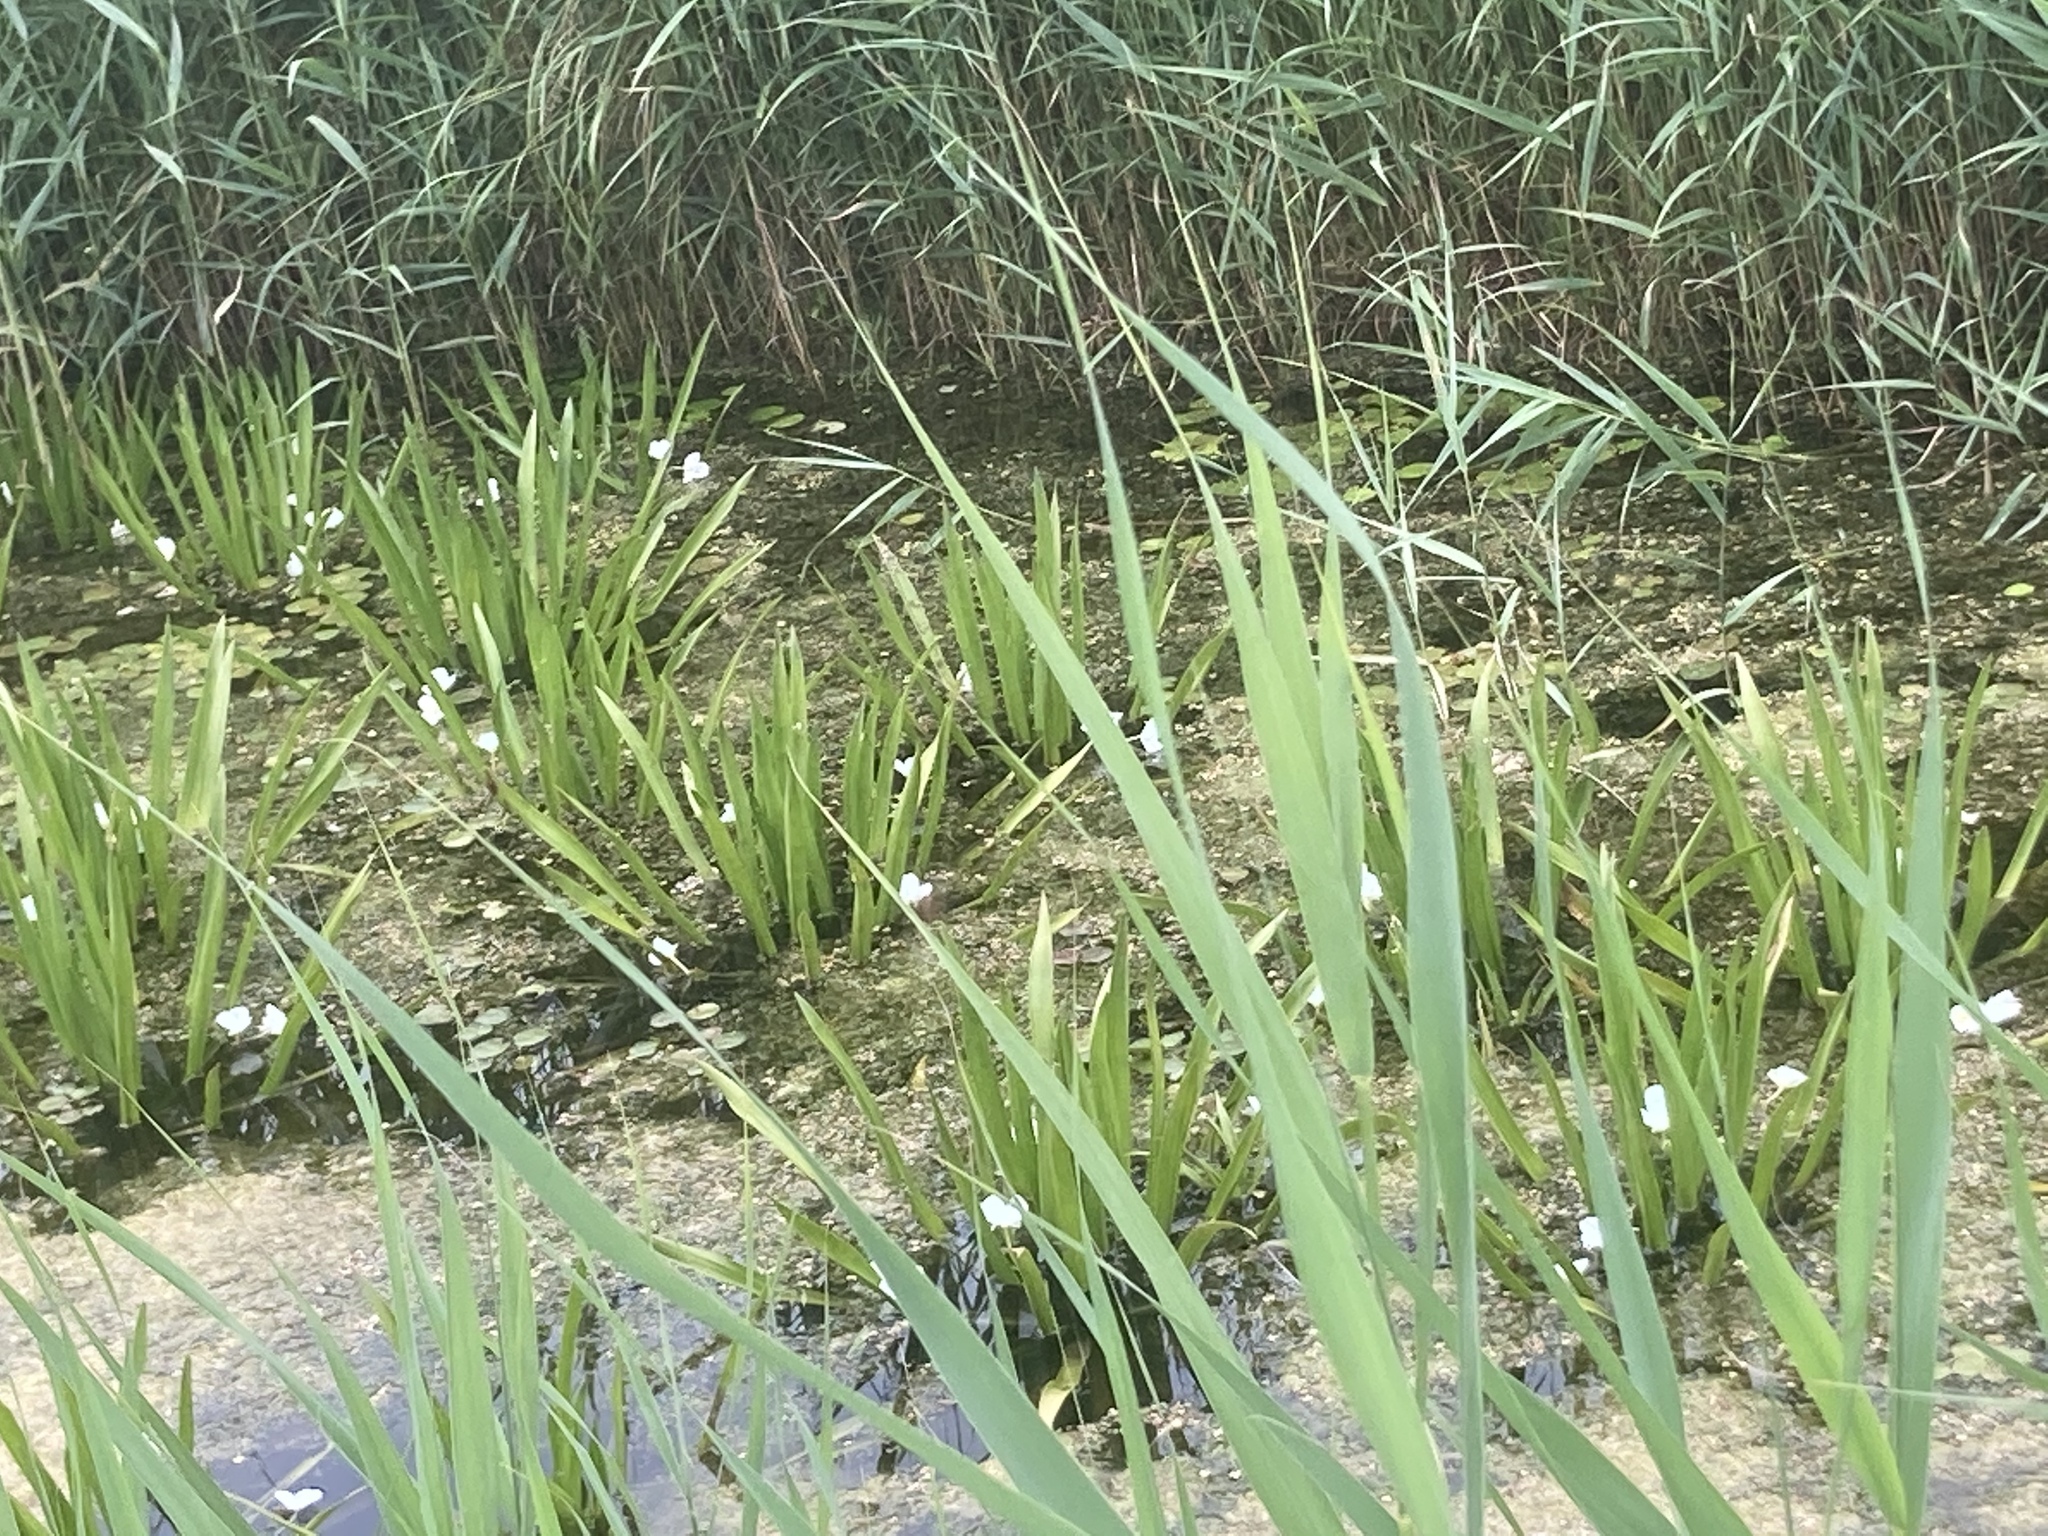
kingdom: Plantae
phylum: Tracheophyta
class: Liliopsida
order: Alismatales
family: Hydrocharitaceae
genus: Stratiotes
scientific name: Stratiotes aloides
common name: Water-soldier
